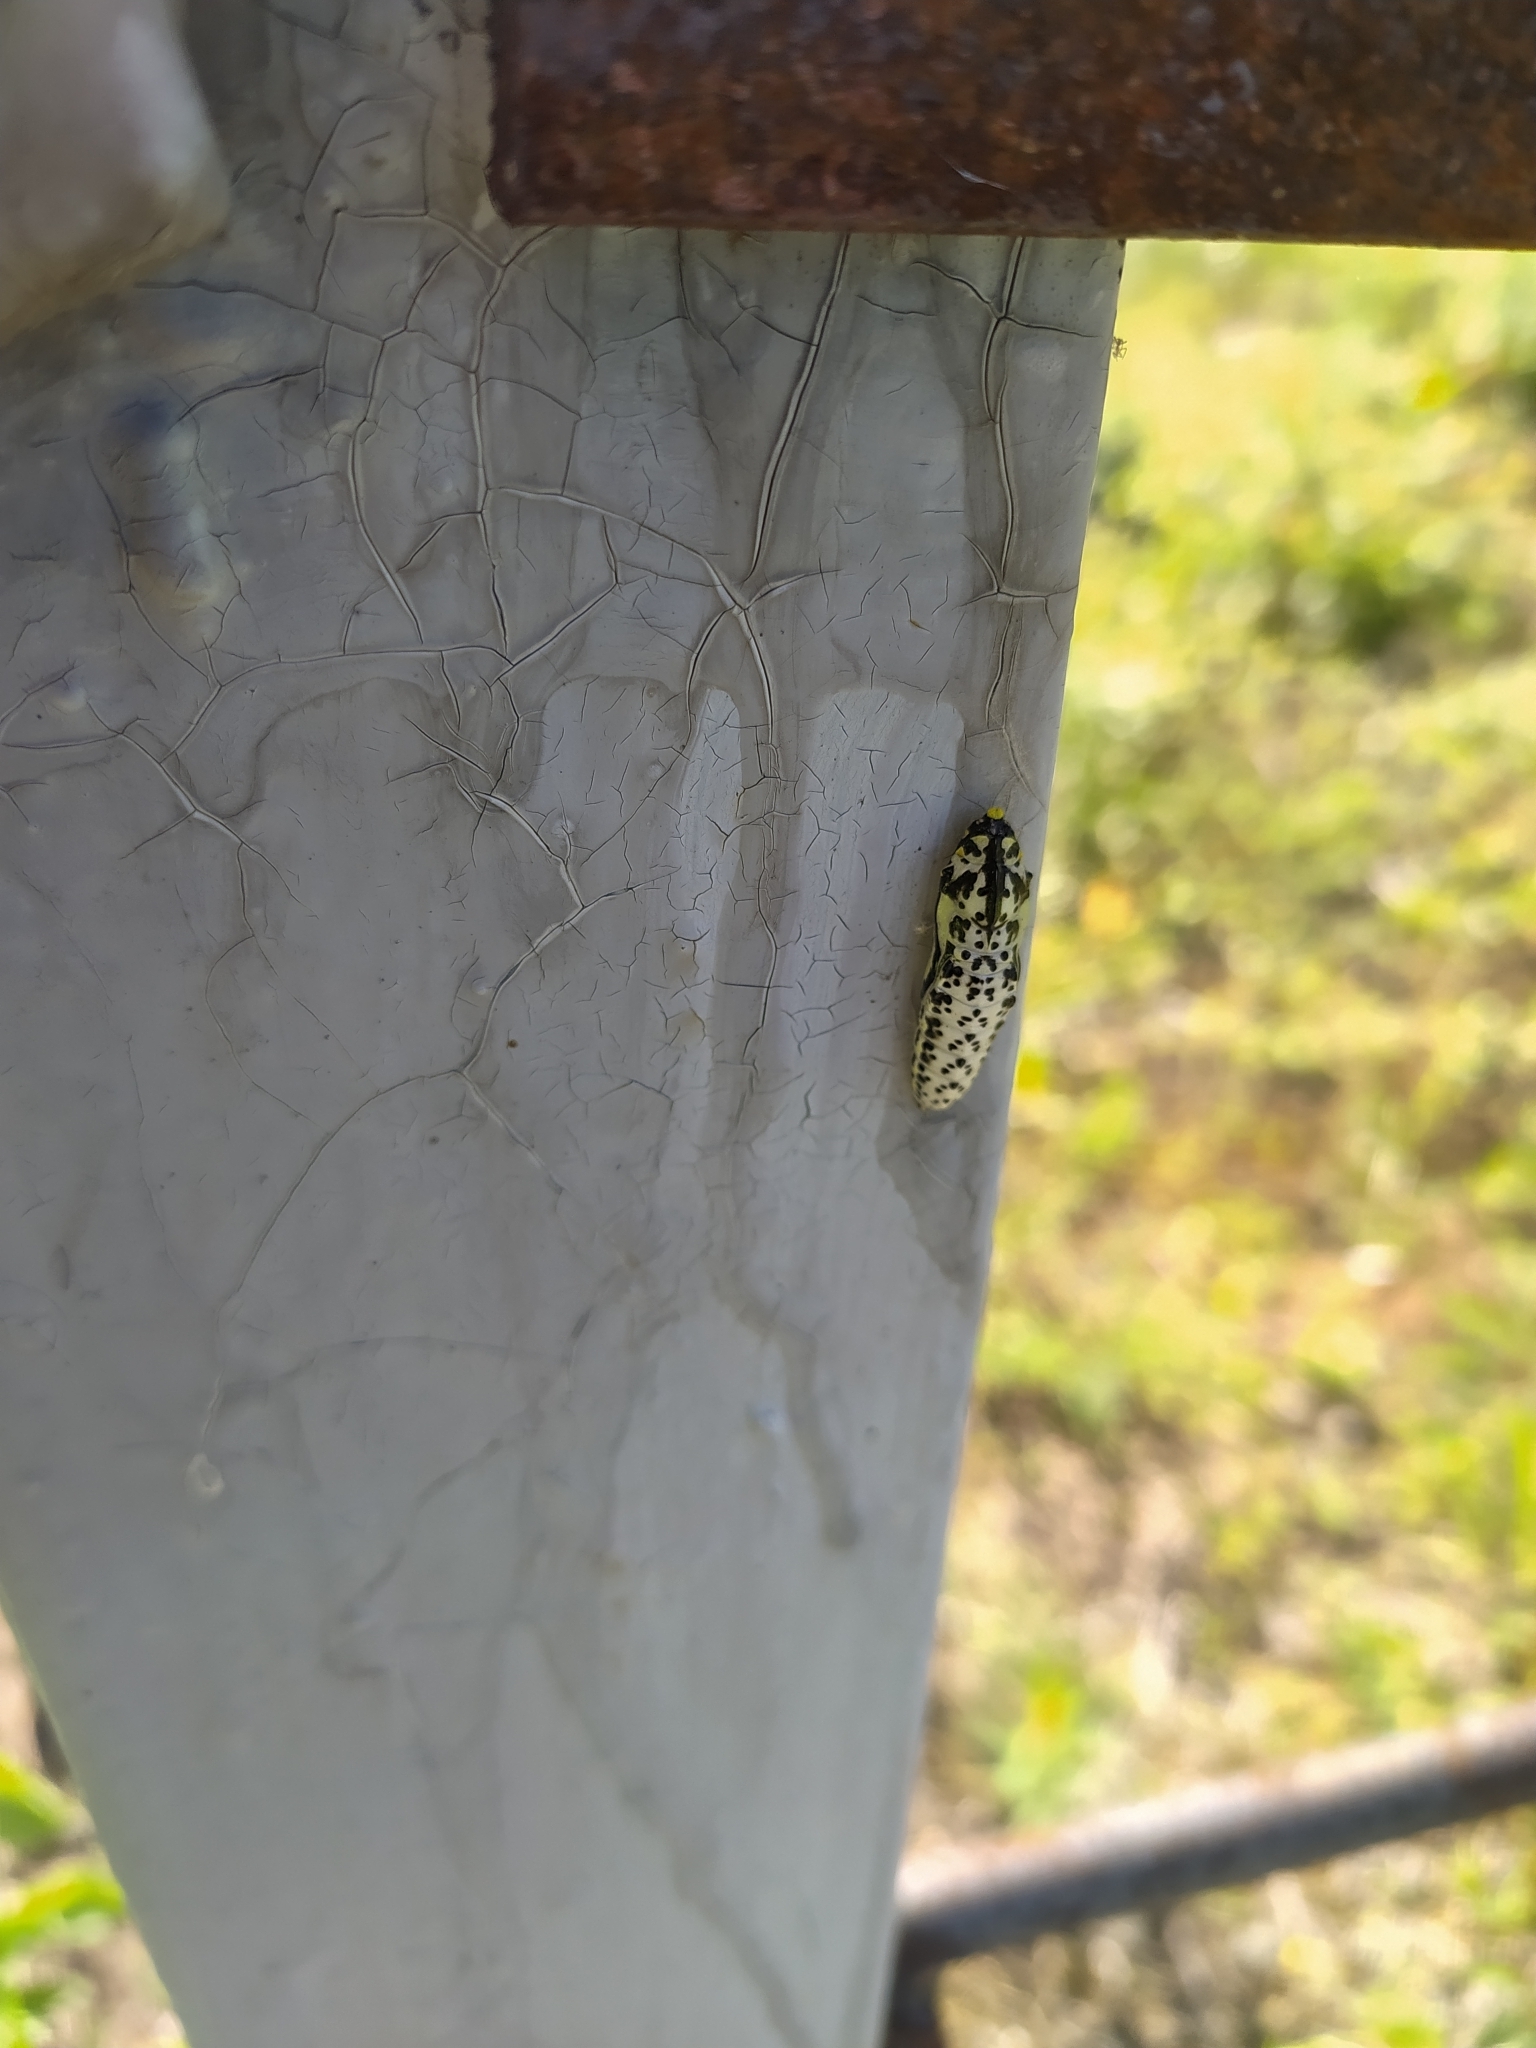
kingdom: Animalia
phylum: Arthropoda
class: Insecta
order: Lepidoptera
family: Pieridae
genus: Aporia
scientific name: Aporia crataegi
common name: Black-veined white
